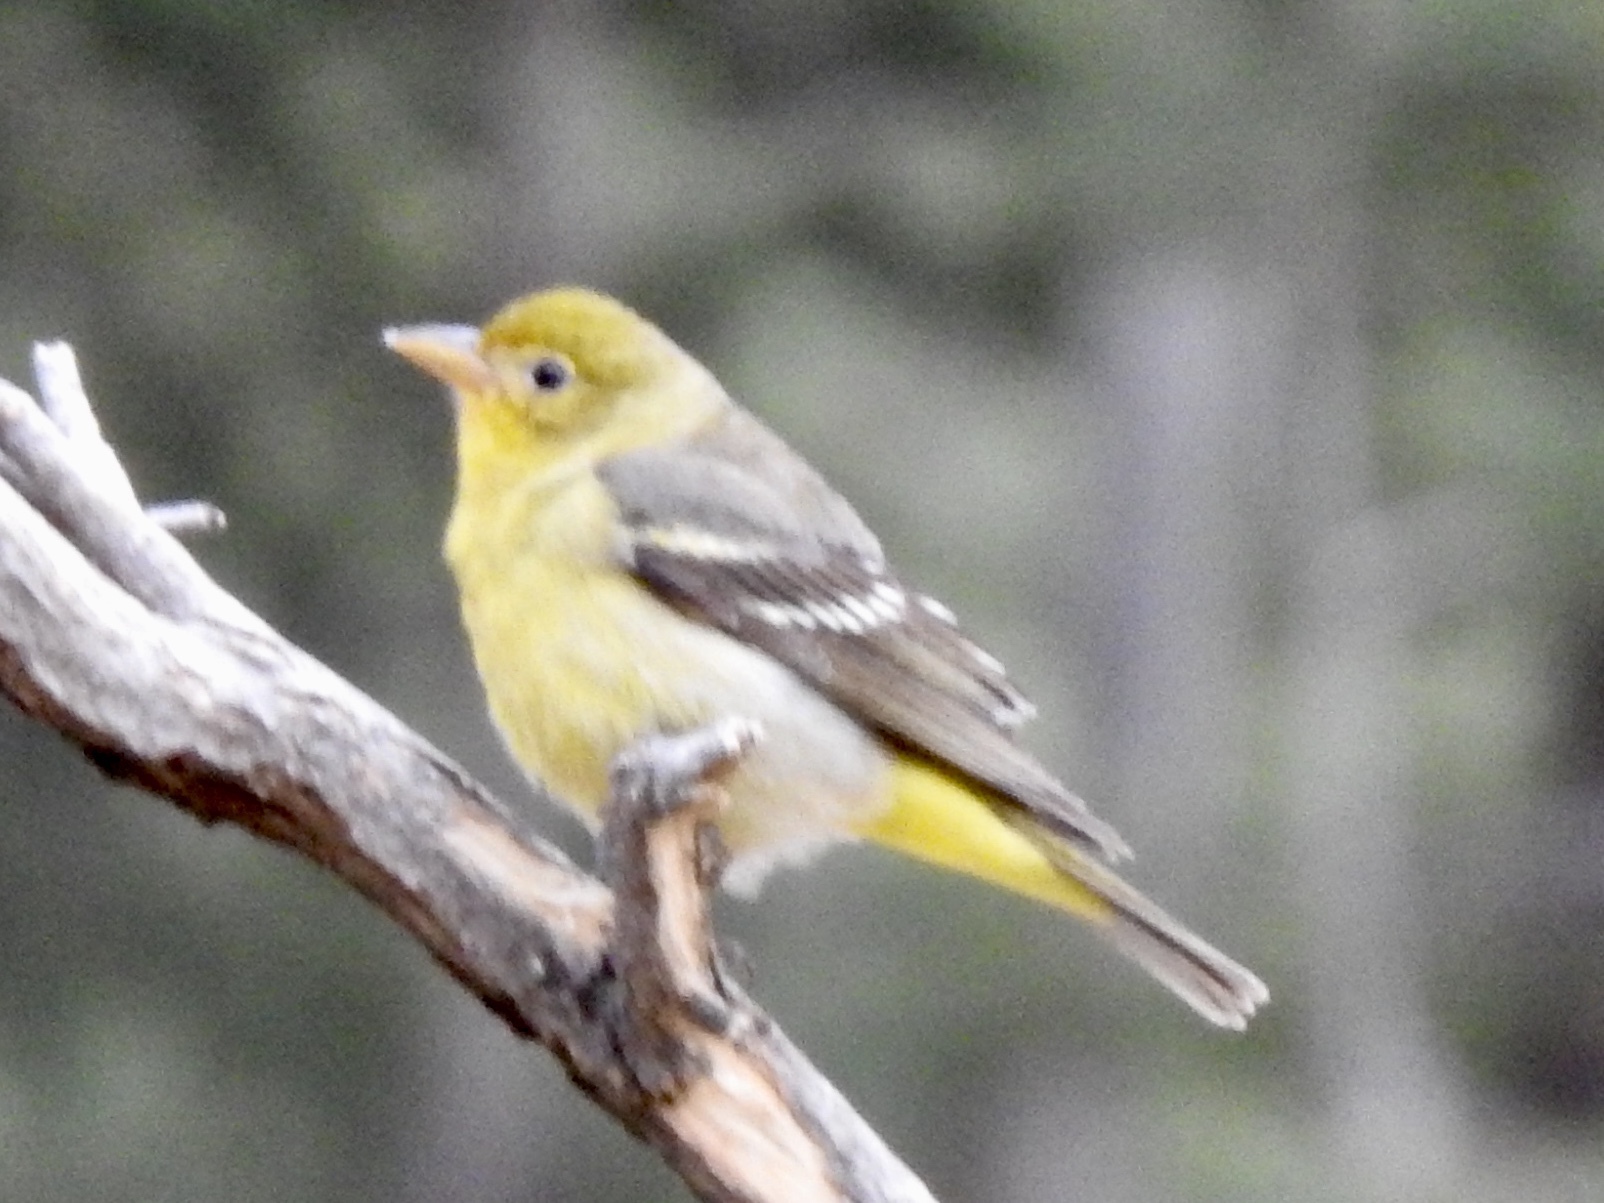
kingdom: Animalia
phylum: Chordata
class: Aves
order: Passeriformes
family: Cardinalidae
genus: Piranga
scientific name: Piranga ludoviciana
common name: Western tanager
